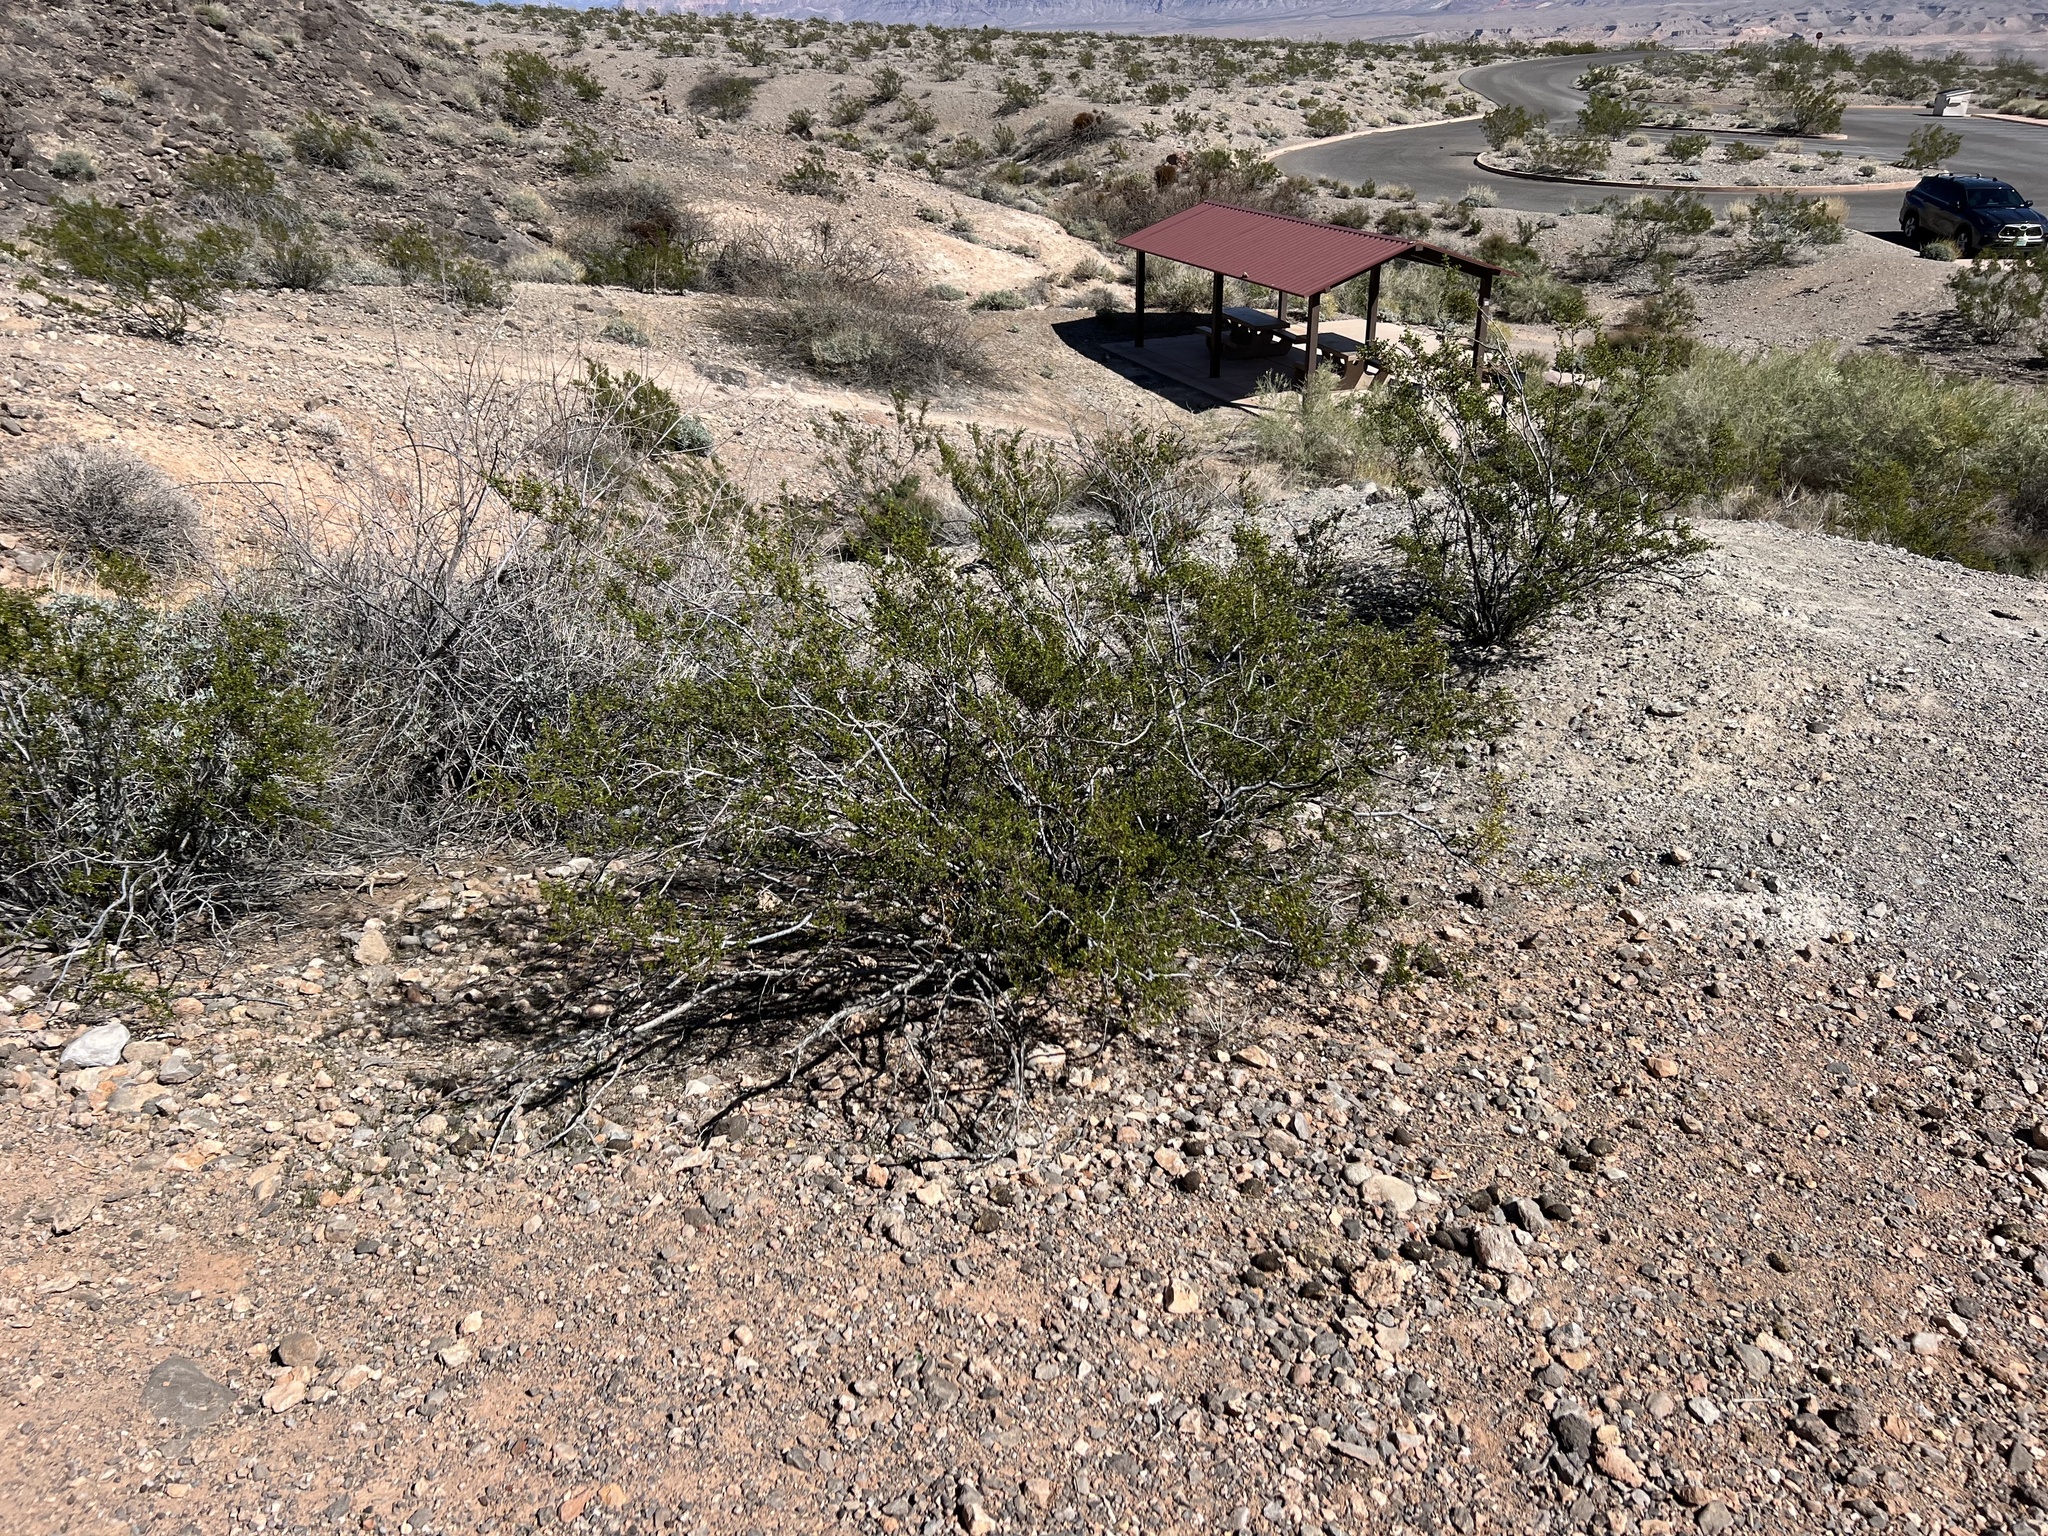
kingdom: Plantae
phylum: Tracheophyta
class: Magnoliopsida
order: Zygophyllales
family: Zygophyllaceae
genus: Larrea
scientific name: Larrea tridentata
